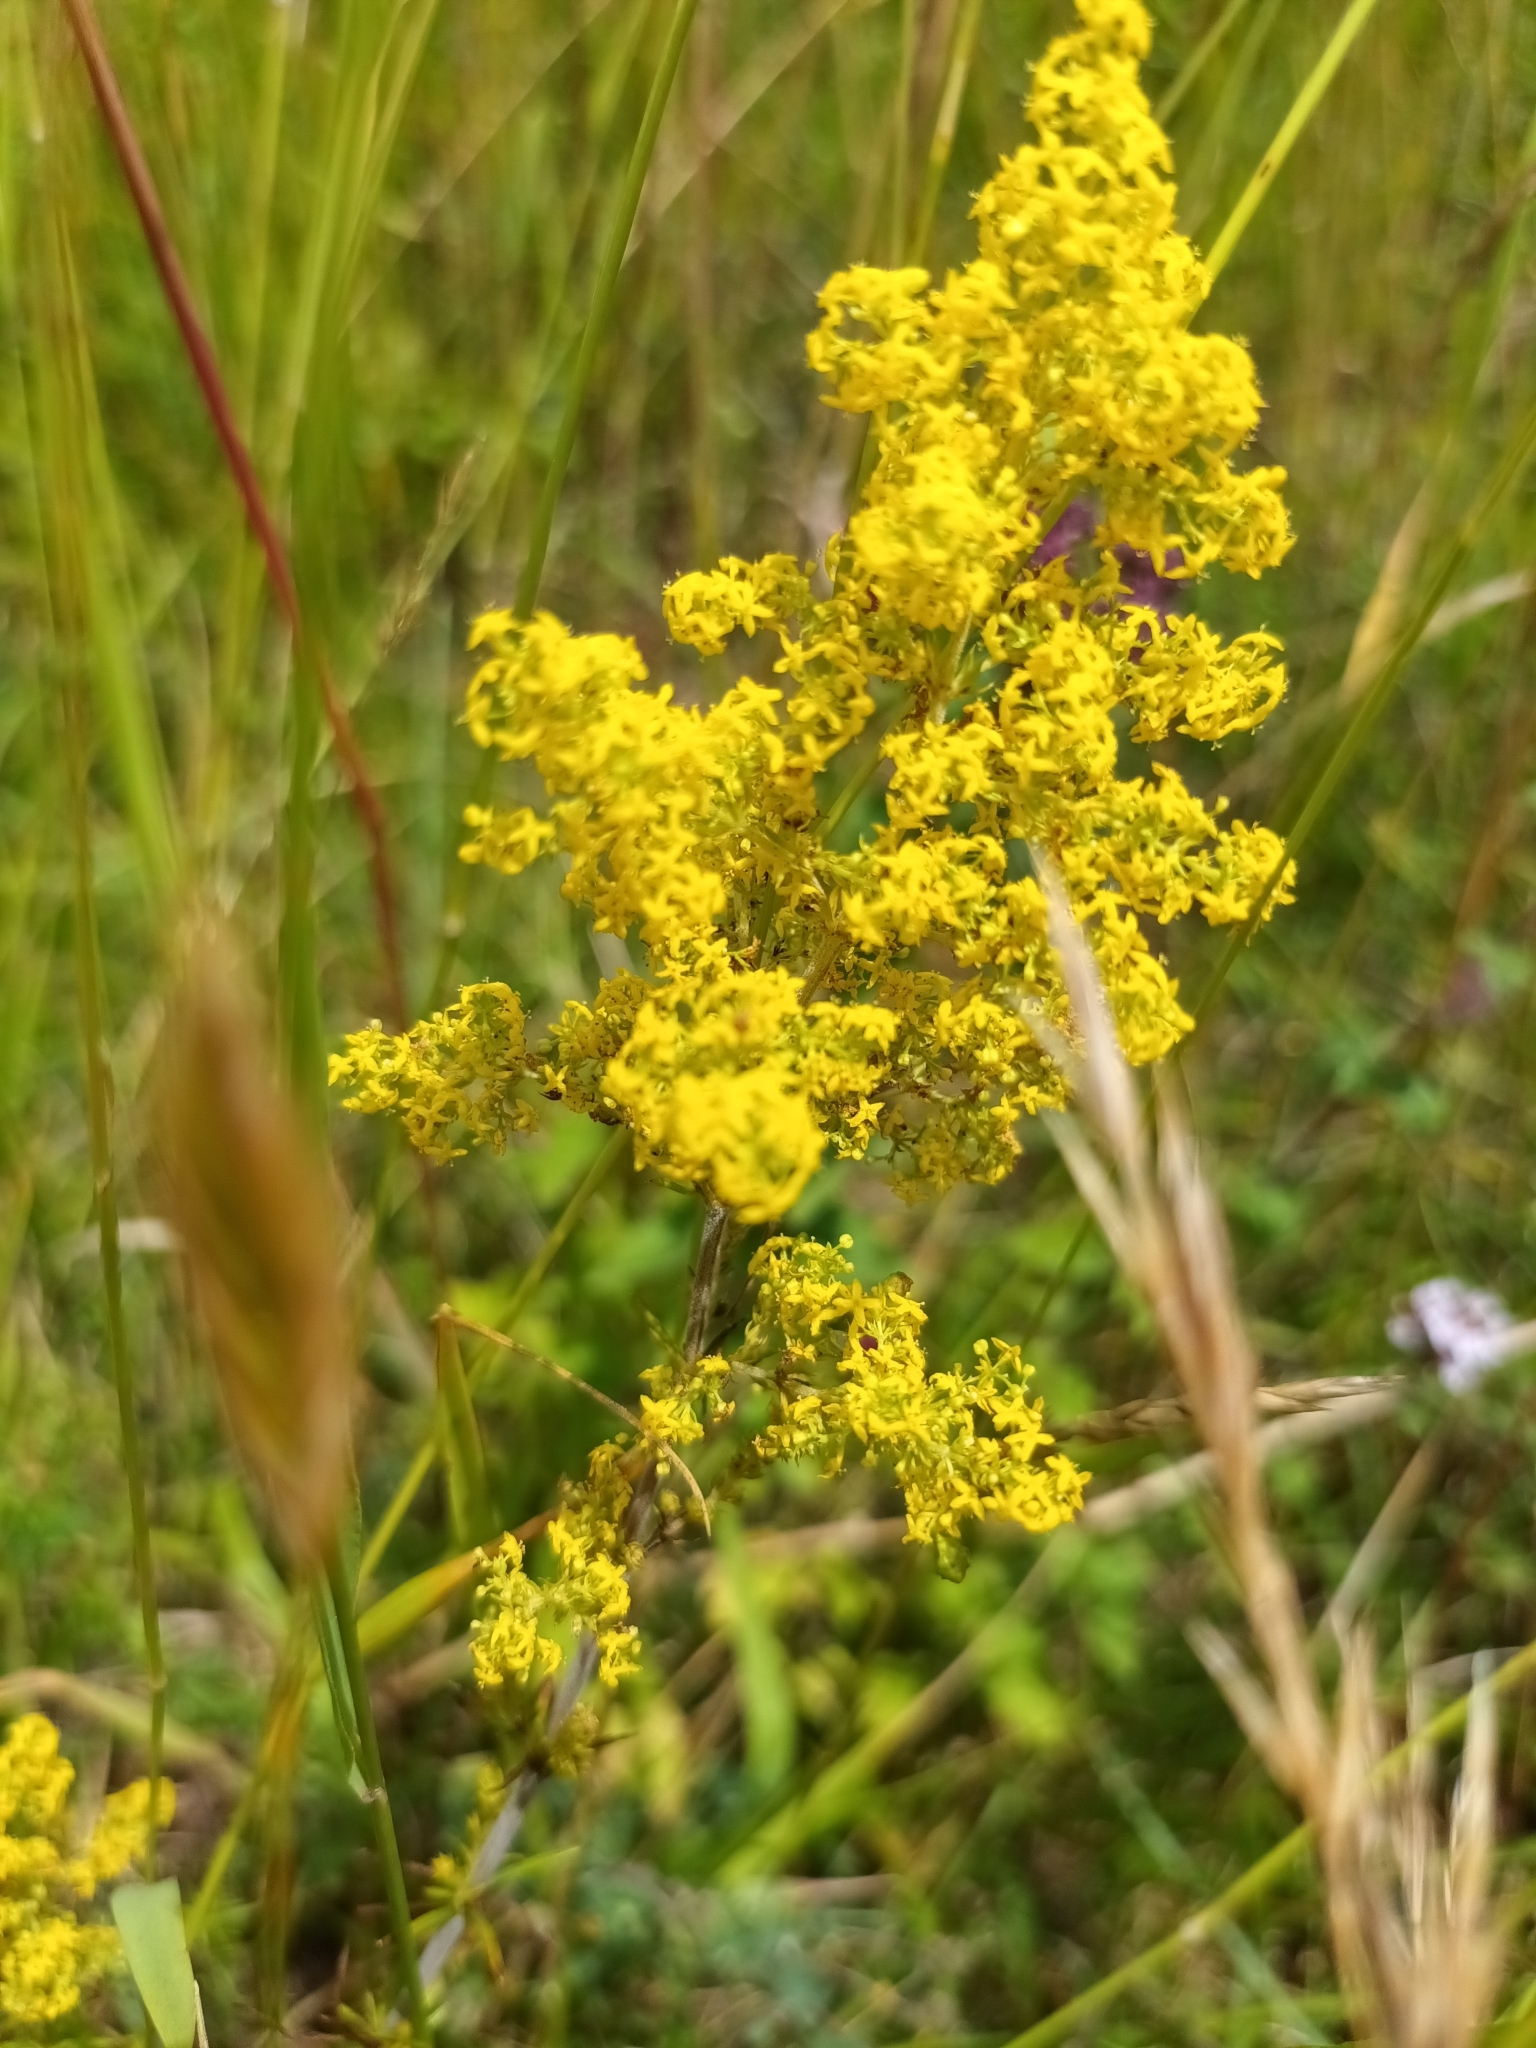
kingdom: Plantae
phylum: Tracheophyta
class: Magnoliopsida
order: Gentianales
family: Rubiaceae
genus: Galium
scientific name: Galium verum
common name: Lady's bedstraw
